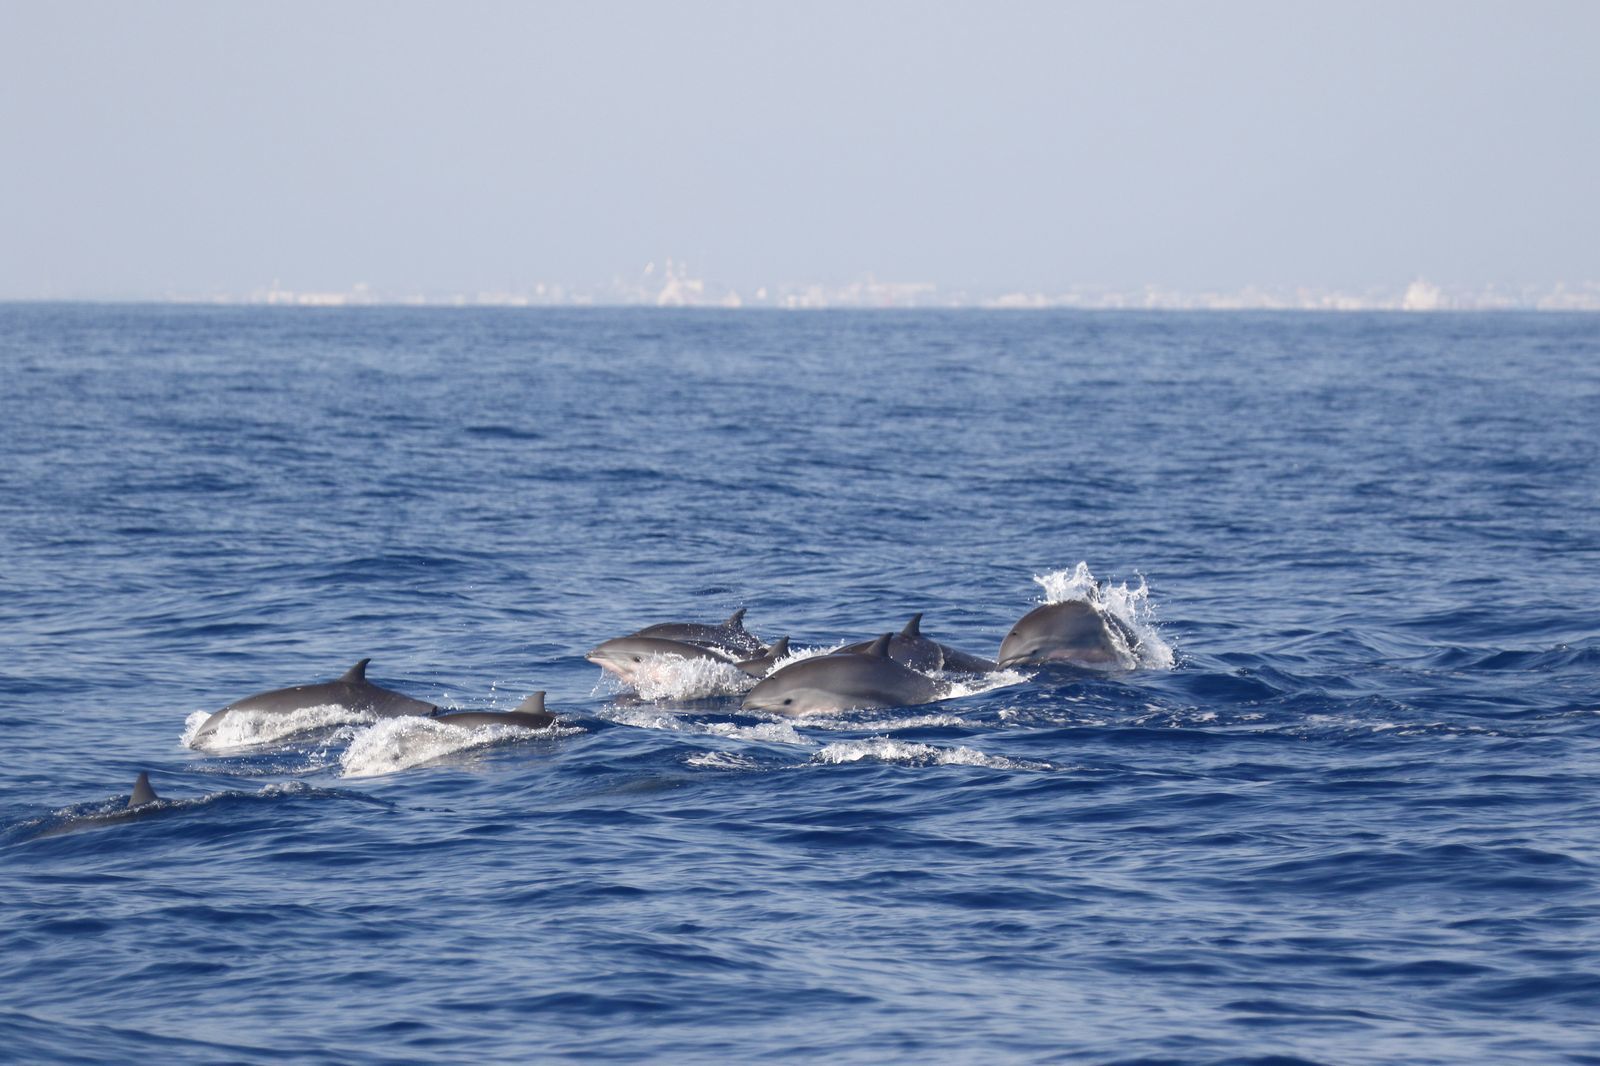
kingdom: Animalia
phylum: Chordata
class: Mammalia
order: Cetacea
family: Delphinidae
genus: Lagenodelphis
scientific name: Lagenodelphis hosei
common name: Fraser's dolphin
